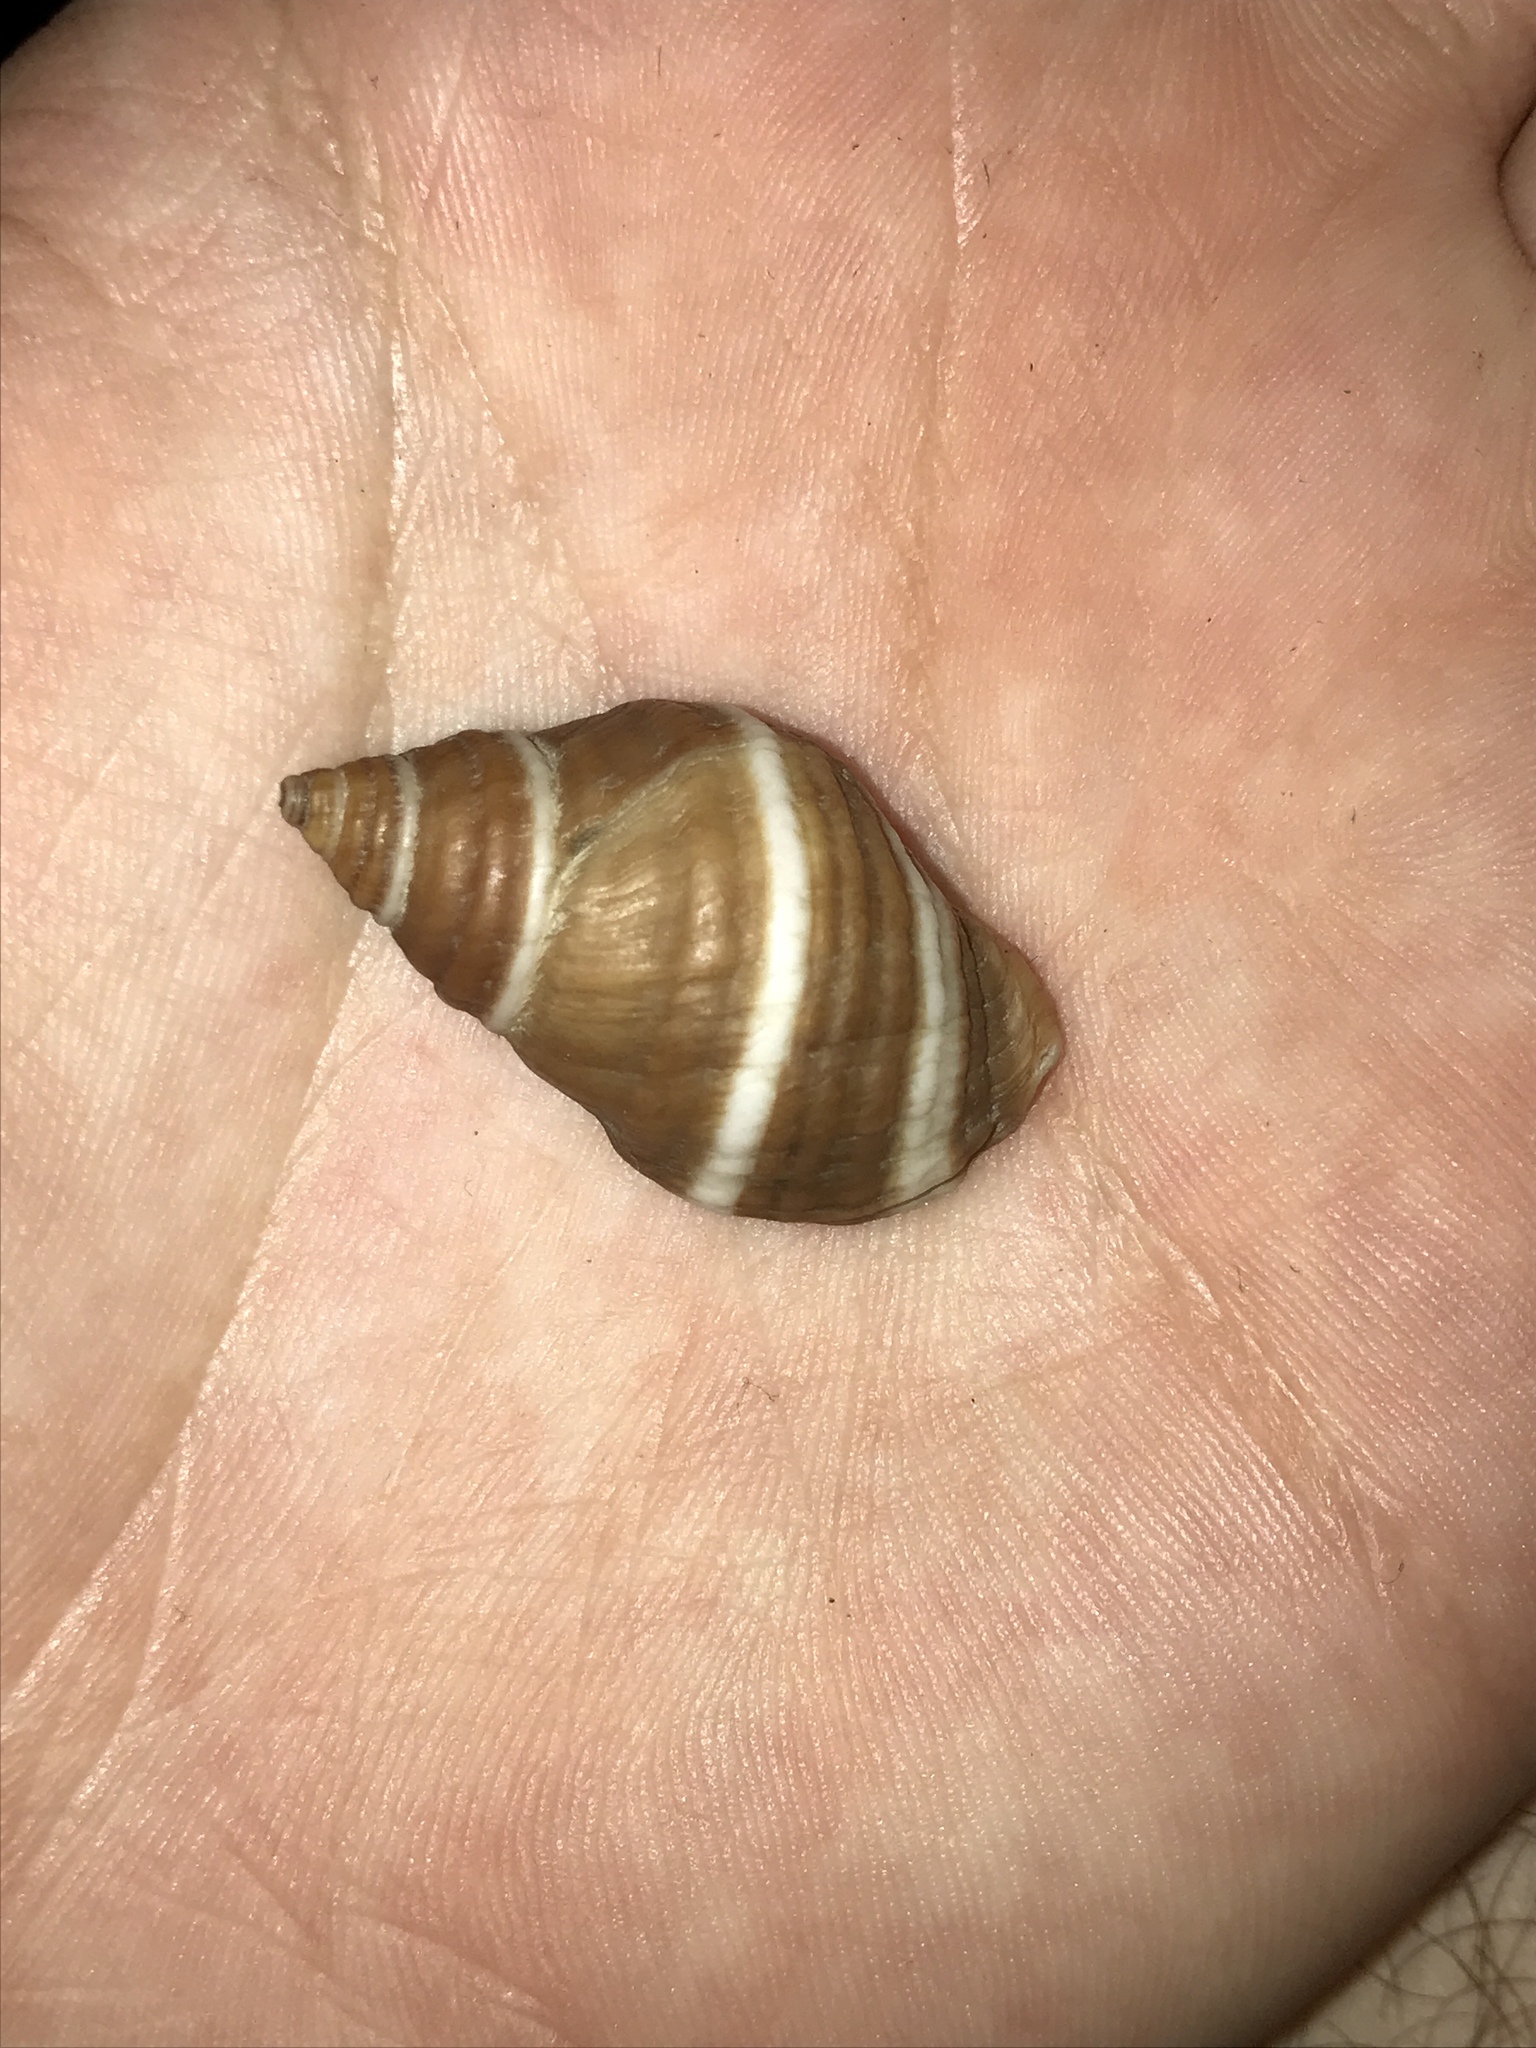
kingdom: Animalia
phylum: Mollusca
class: Gastropoda
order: Neogastropoda
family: Muricidae
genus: Nucella
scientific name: Nucella lapillus
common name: Dog whelk
